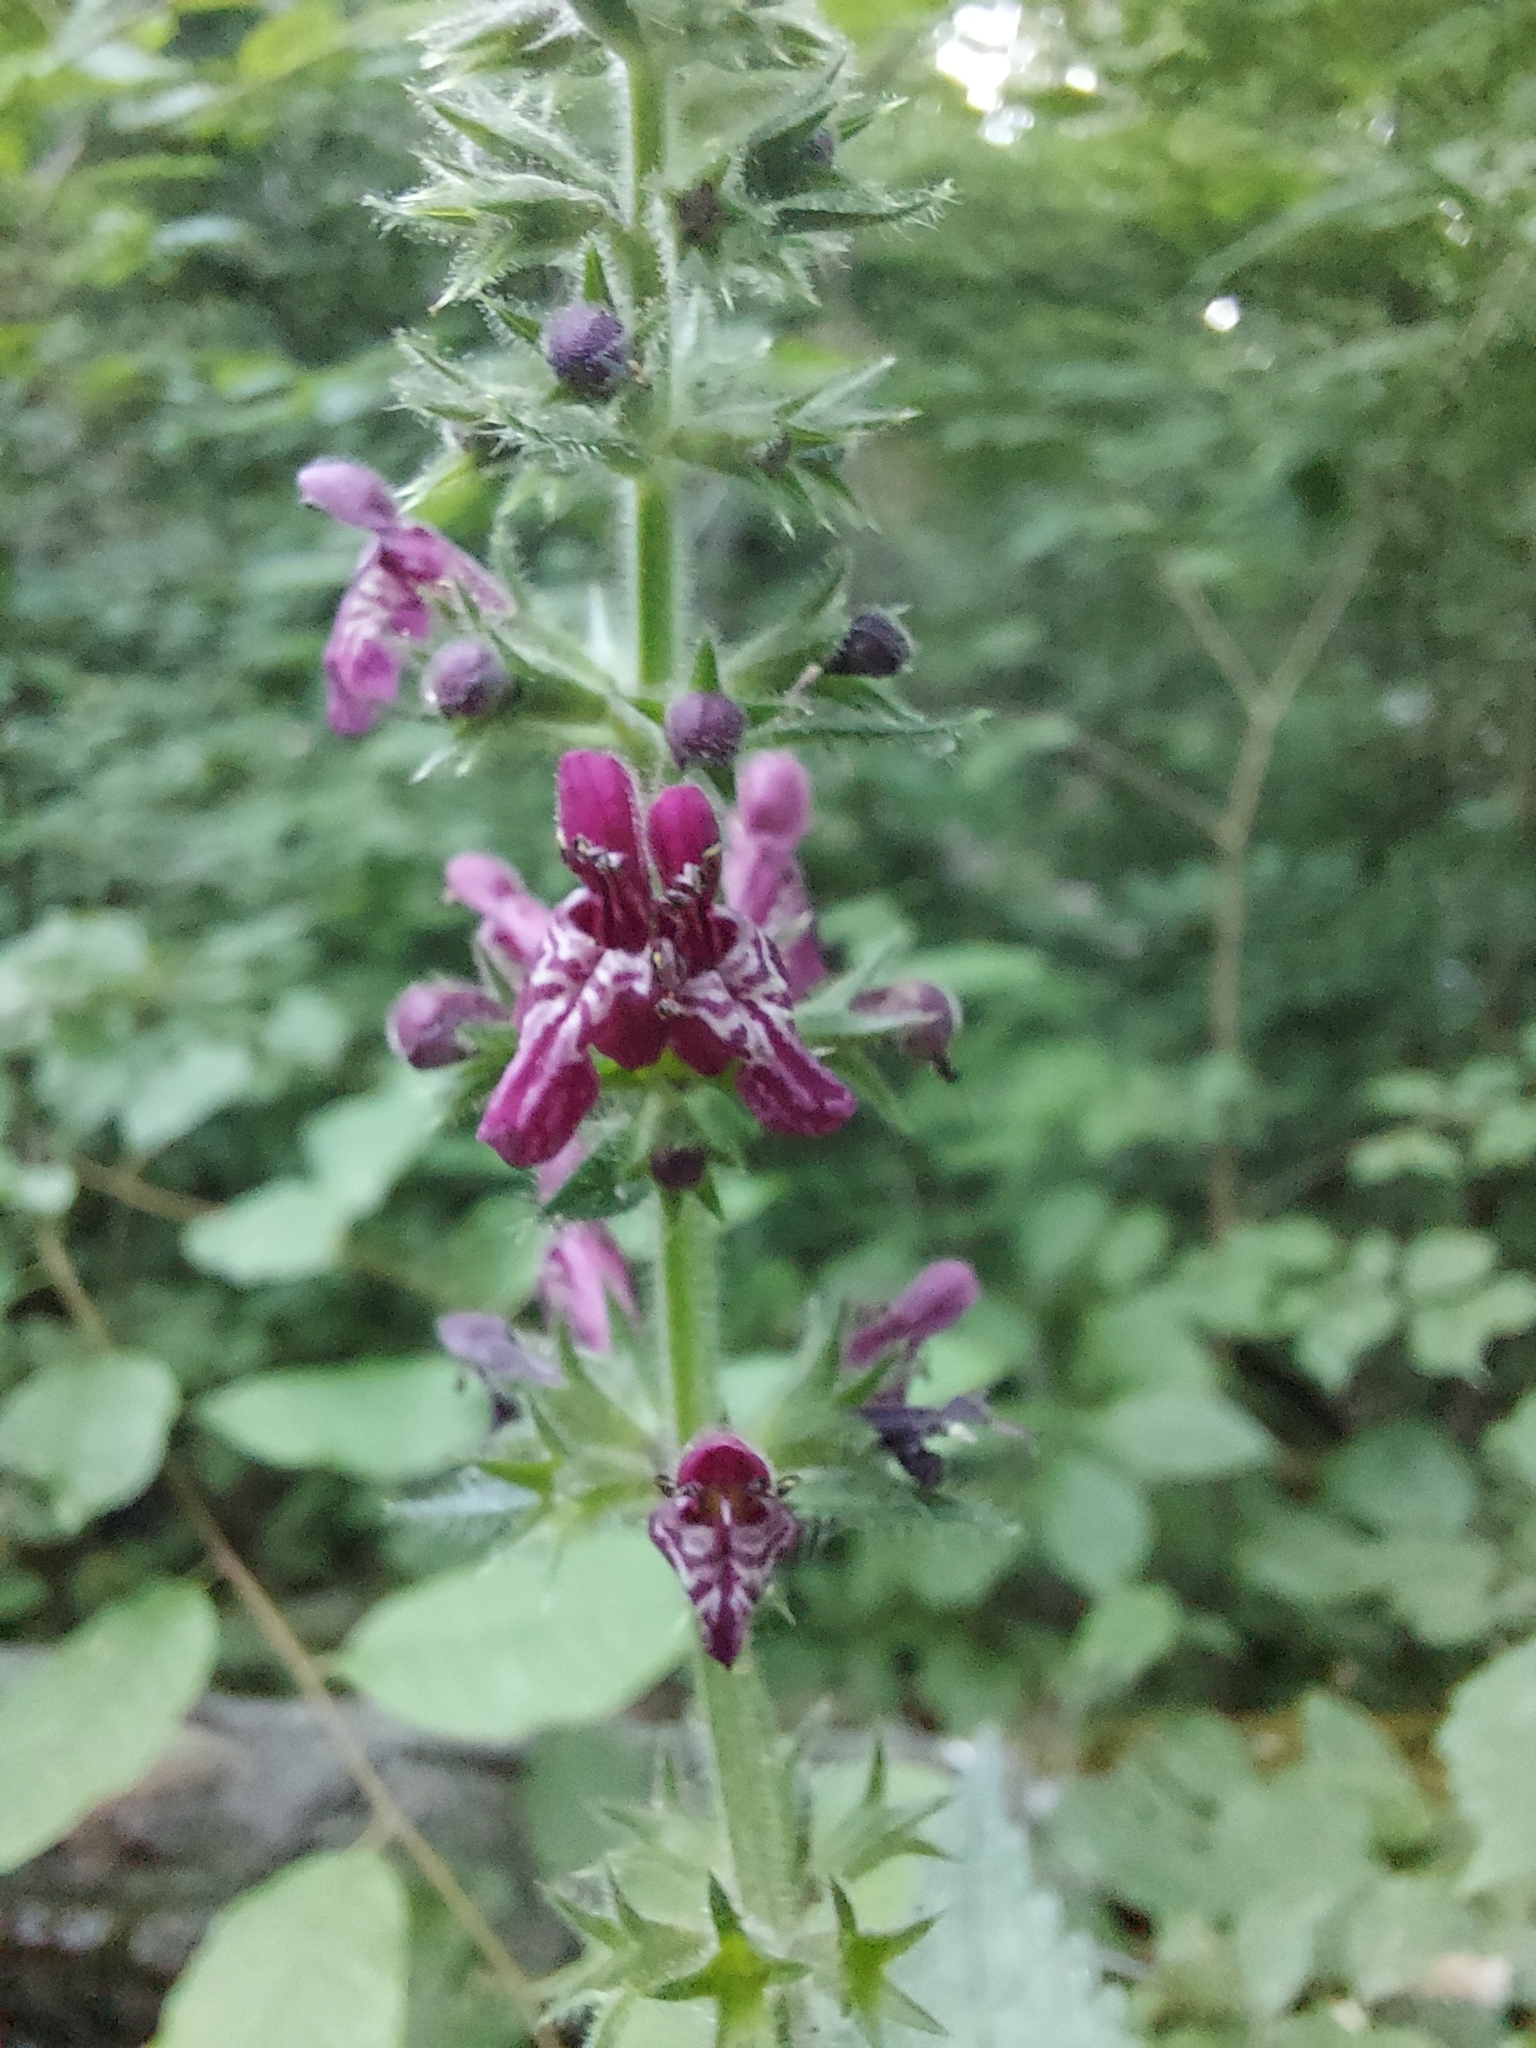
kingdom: Plantae
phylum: Tracheophyta
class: Magnoliopsida
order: Lamiales
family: Lamiaceae
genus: Stachys
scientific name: Stachys sylvatica
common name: Hedge woundwort
